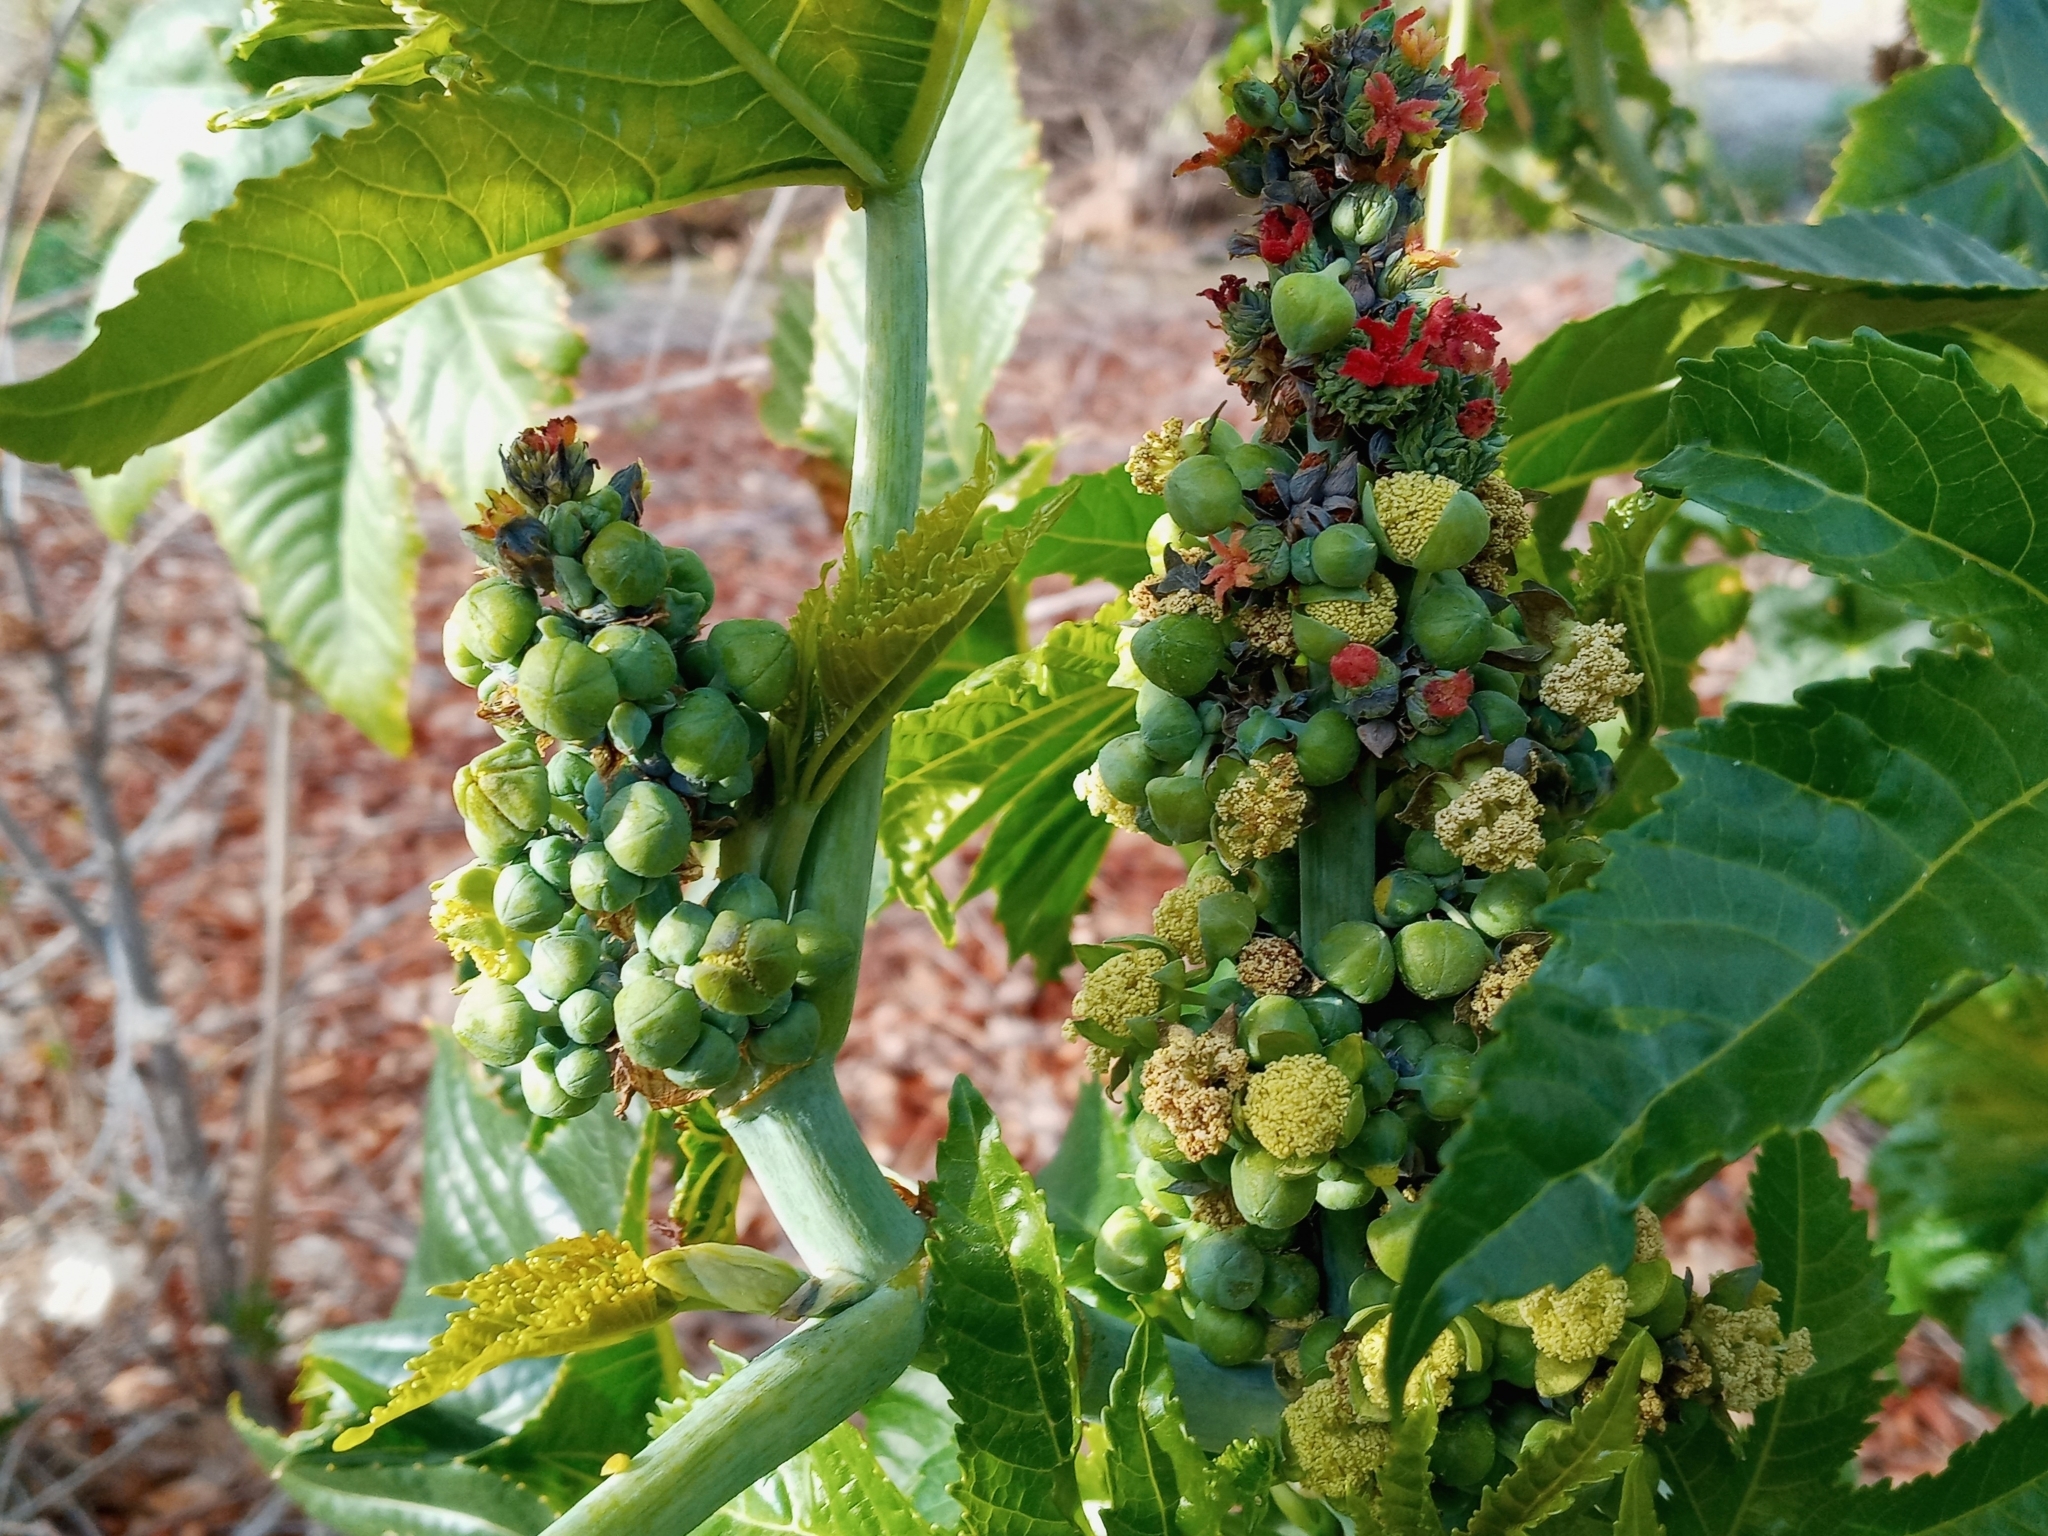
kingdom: Plantae
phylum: Tracheophyta
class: Magnoliopsida
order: Malpighiales
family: Euphorbiaceae
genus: Ricinus
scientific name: Ricinus communis
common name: Castor-oil-plant
